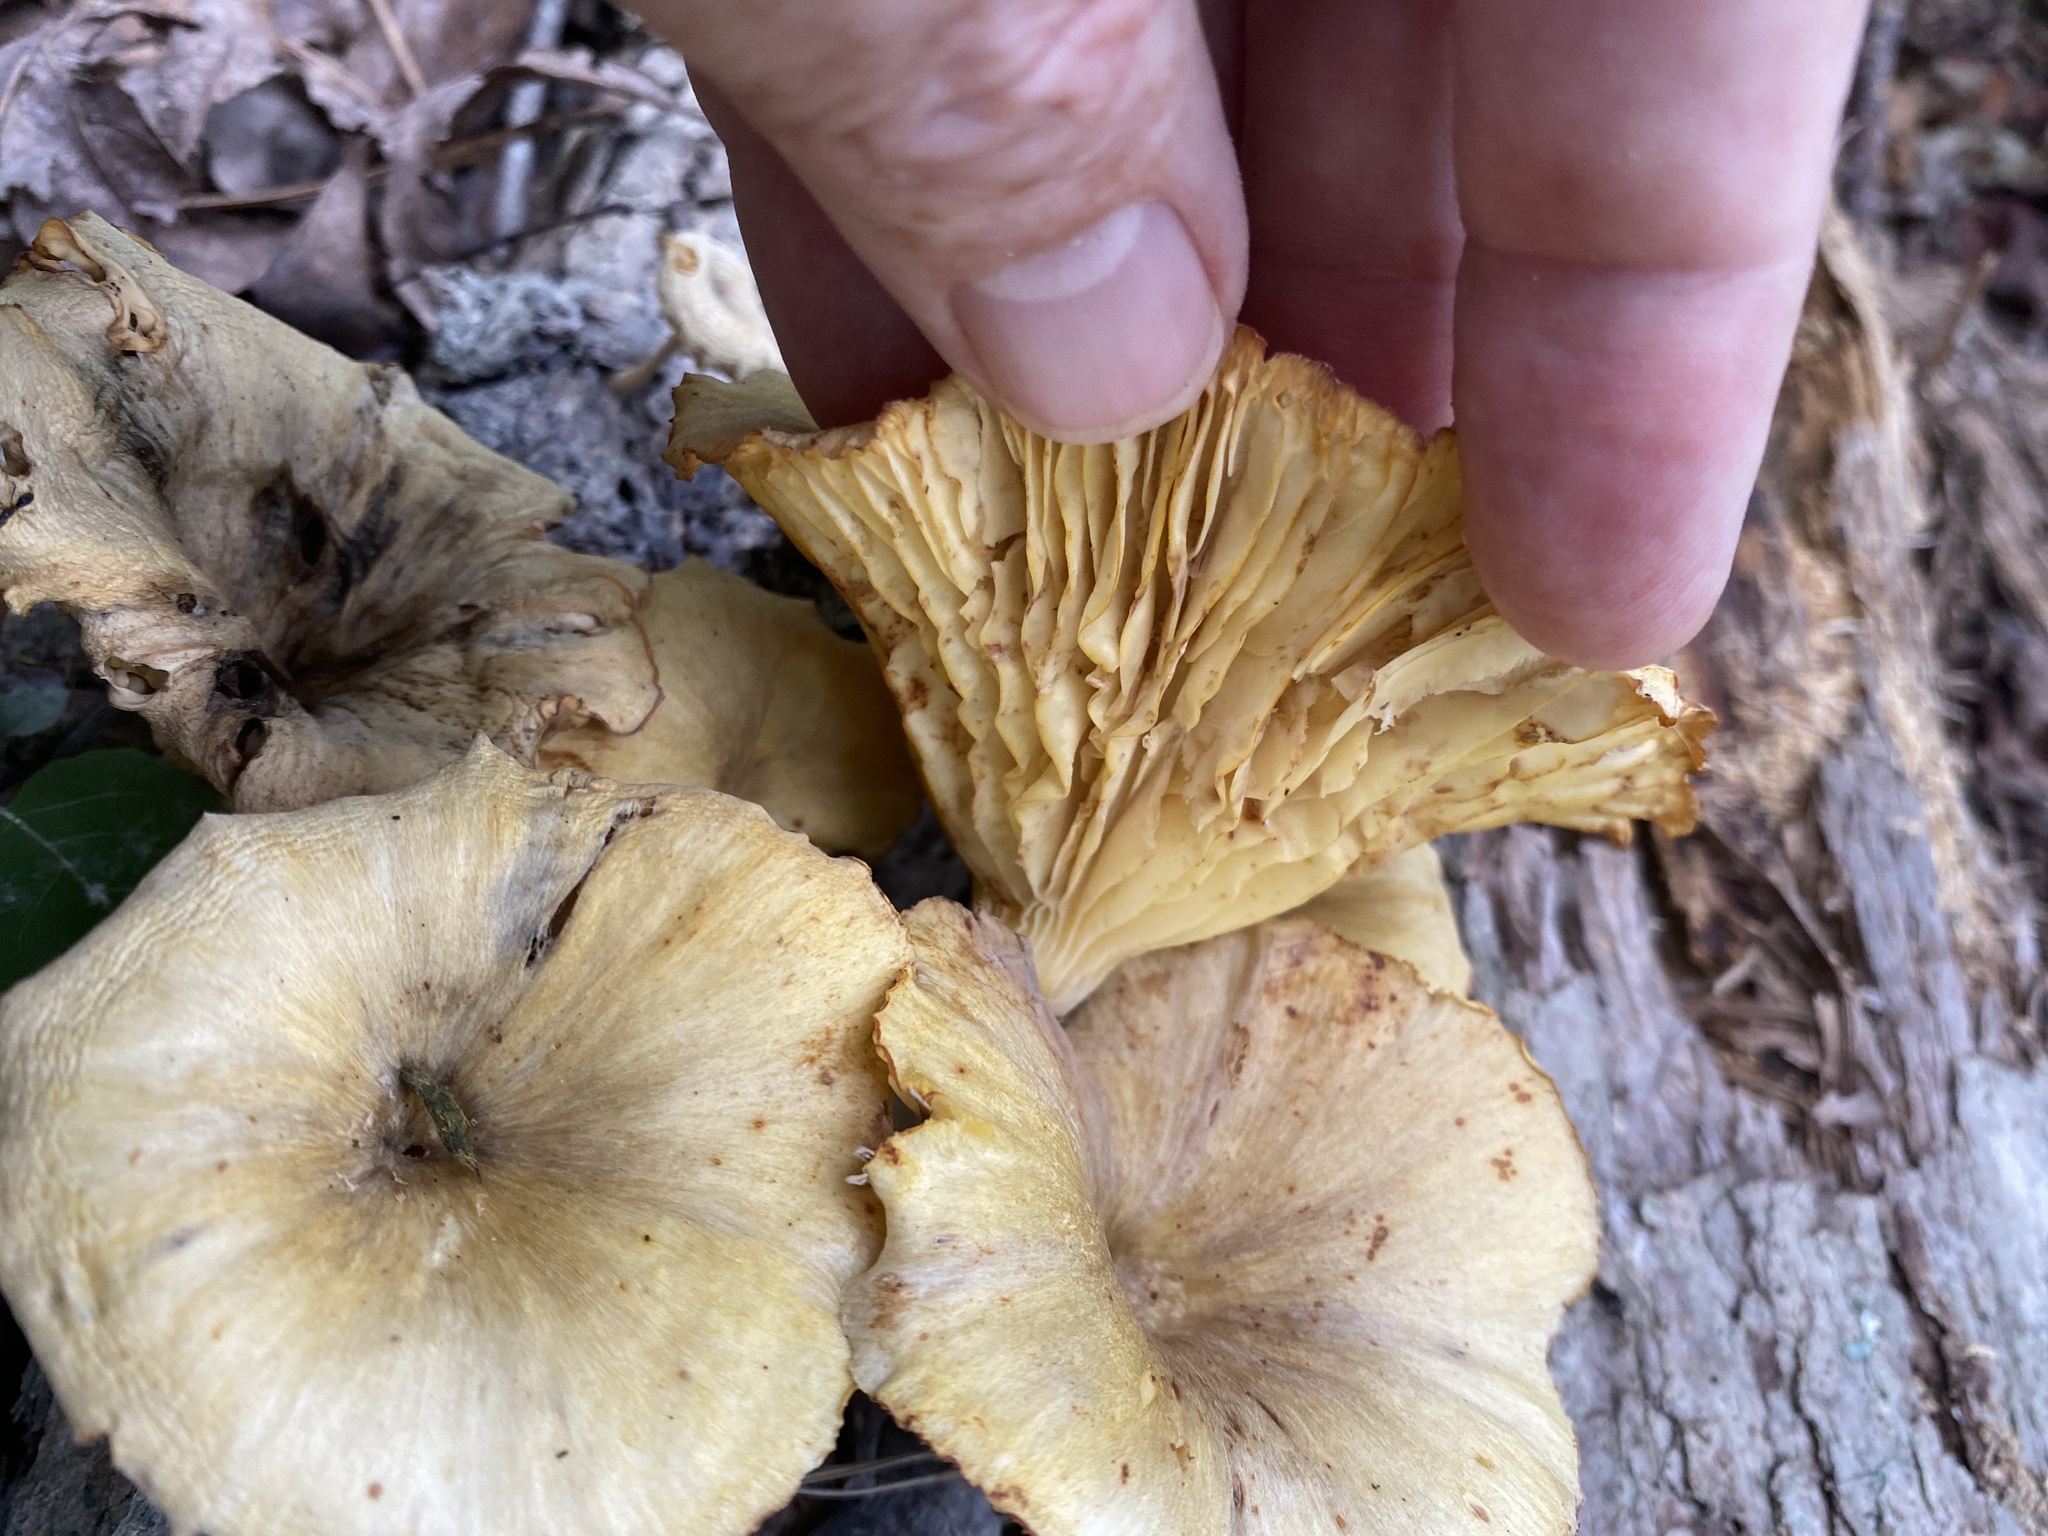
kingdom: Fungi
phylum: Basidiomycota
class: Agaricomycetes
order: Agaricales
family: Marasmiaceae
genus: Gerronema
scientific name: Gerronema strombodes
